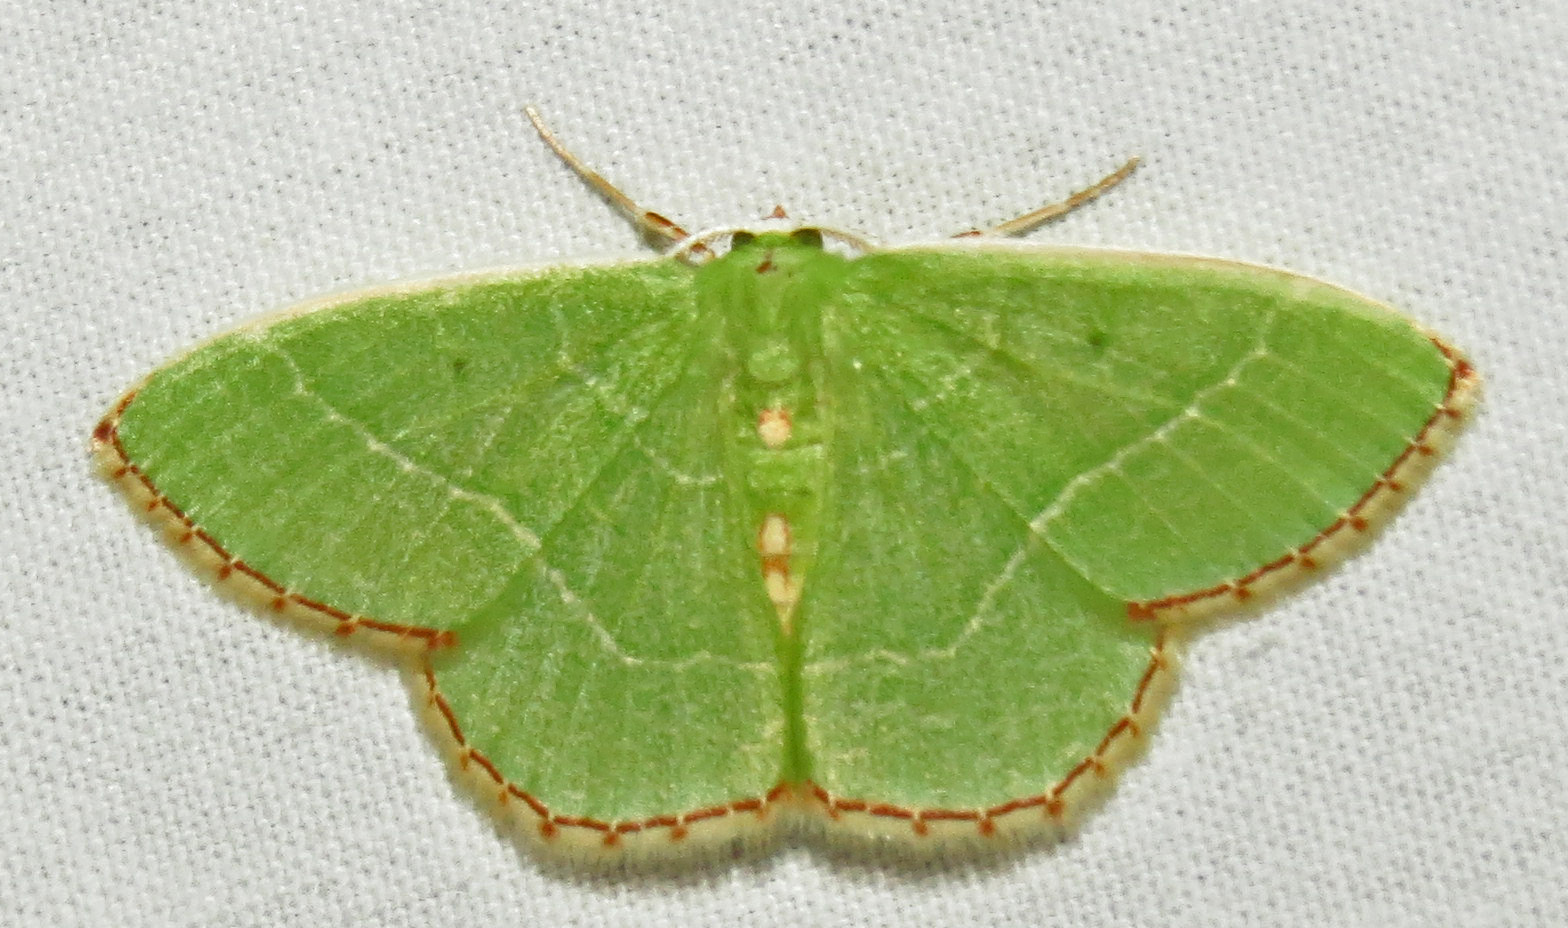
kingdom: Animalia
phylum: Arthropoda
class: Insecta
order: Lepidoptera
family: Geometridae
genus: Nemoria
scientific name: Nemoria bistriaria
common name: Red-fringed emerald
